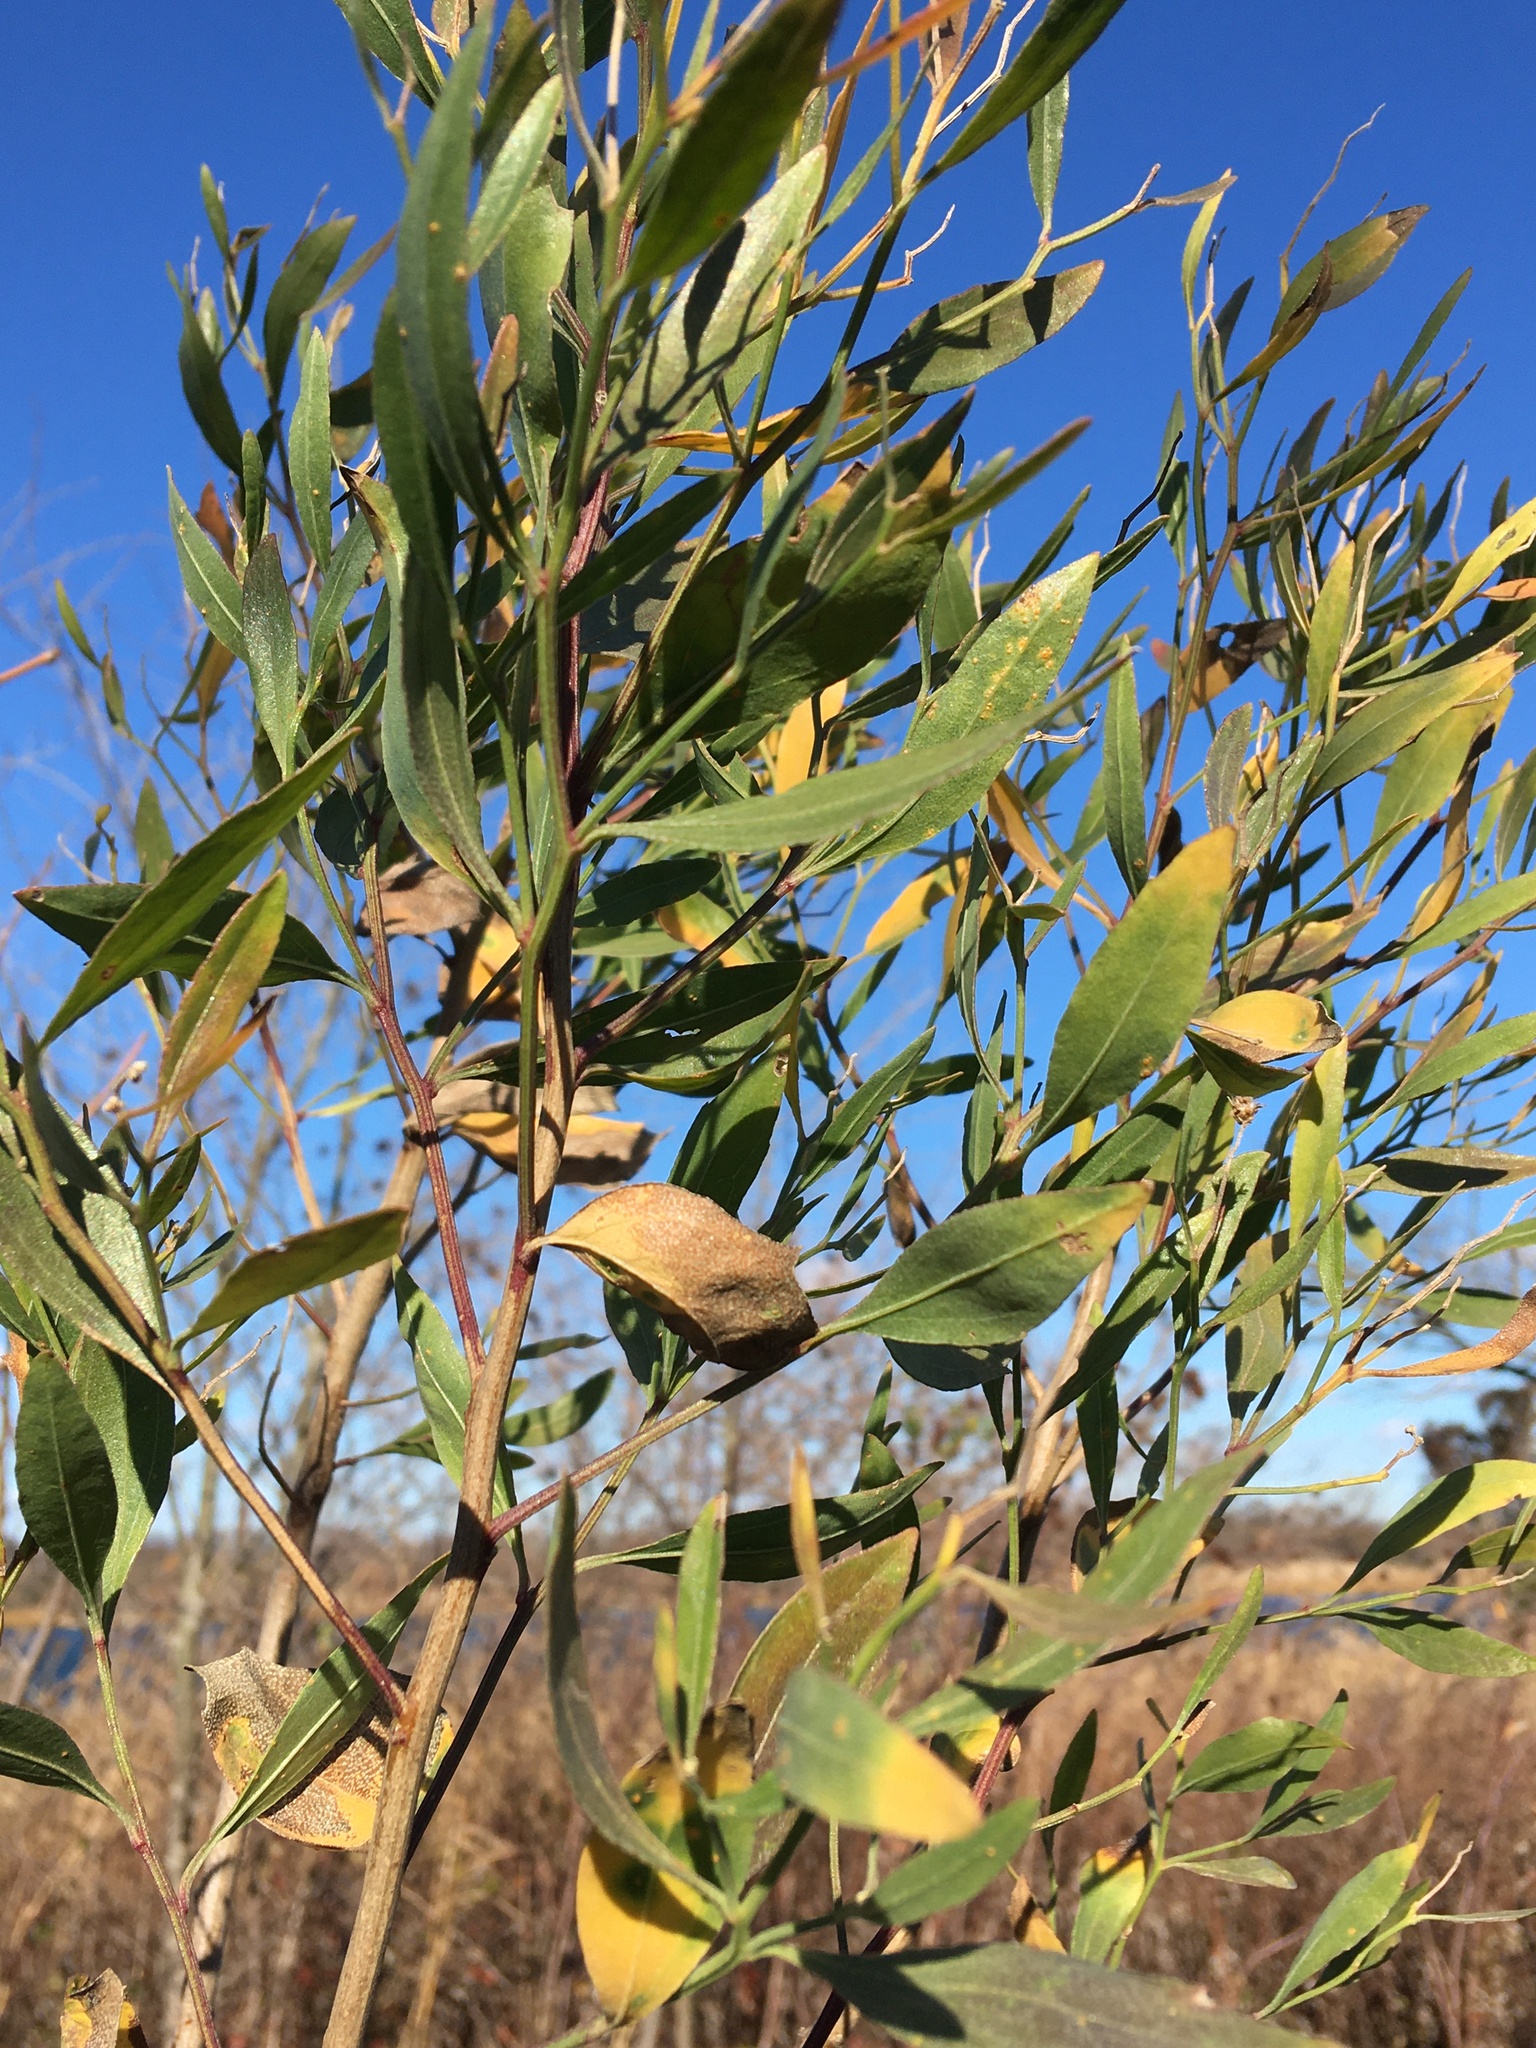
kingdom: Plantae
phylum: Tracheophyta
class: Magnoliopsida
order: Asterales
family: Asteraceae
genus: Baccharis
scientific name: Baccharis halimifolia
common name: Eastern baccharis
